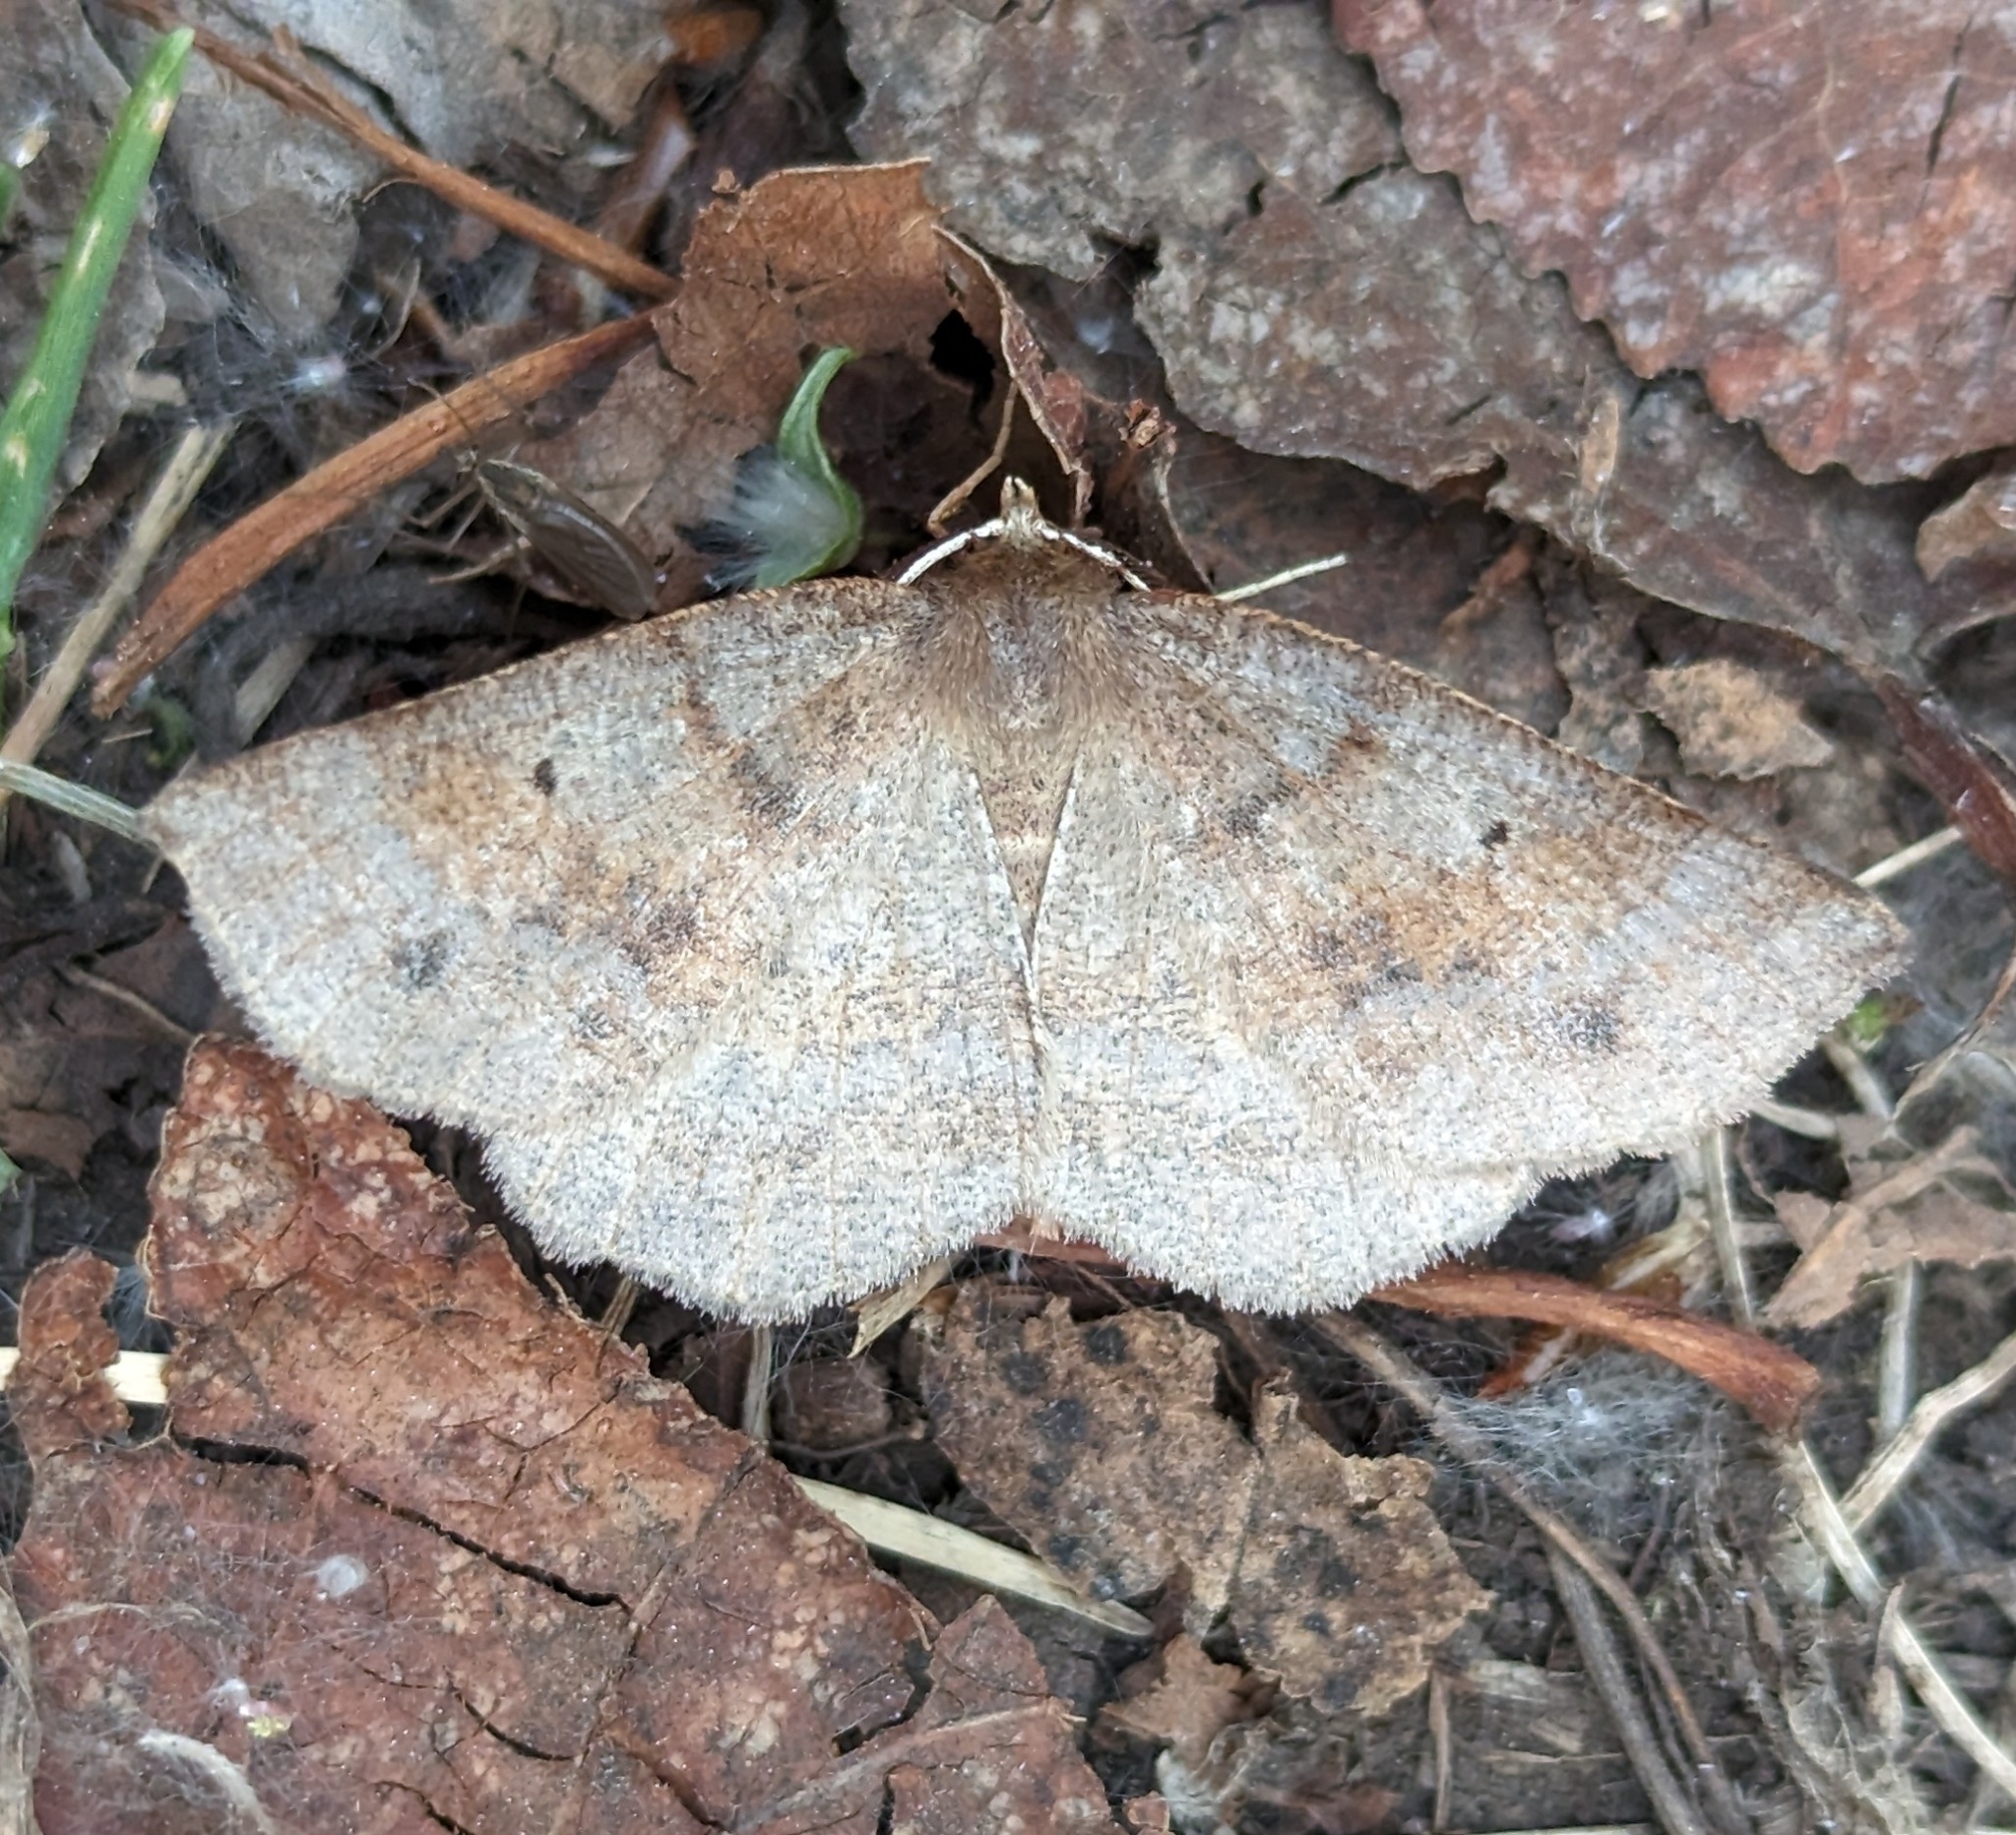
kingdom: Animalia
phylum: Arthropoda
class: Insecta
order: Lepidoptera
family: Geometridae
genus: Metarranthis
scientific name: Metarranthis duaria
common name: Ruddy metarranthis moth
